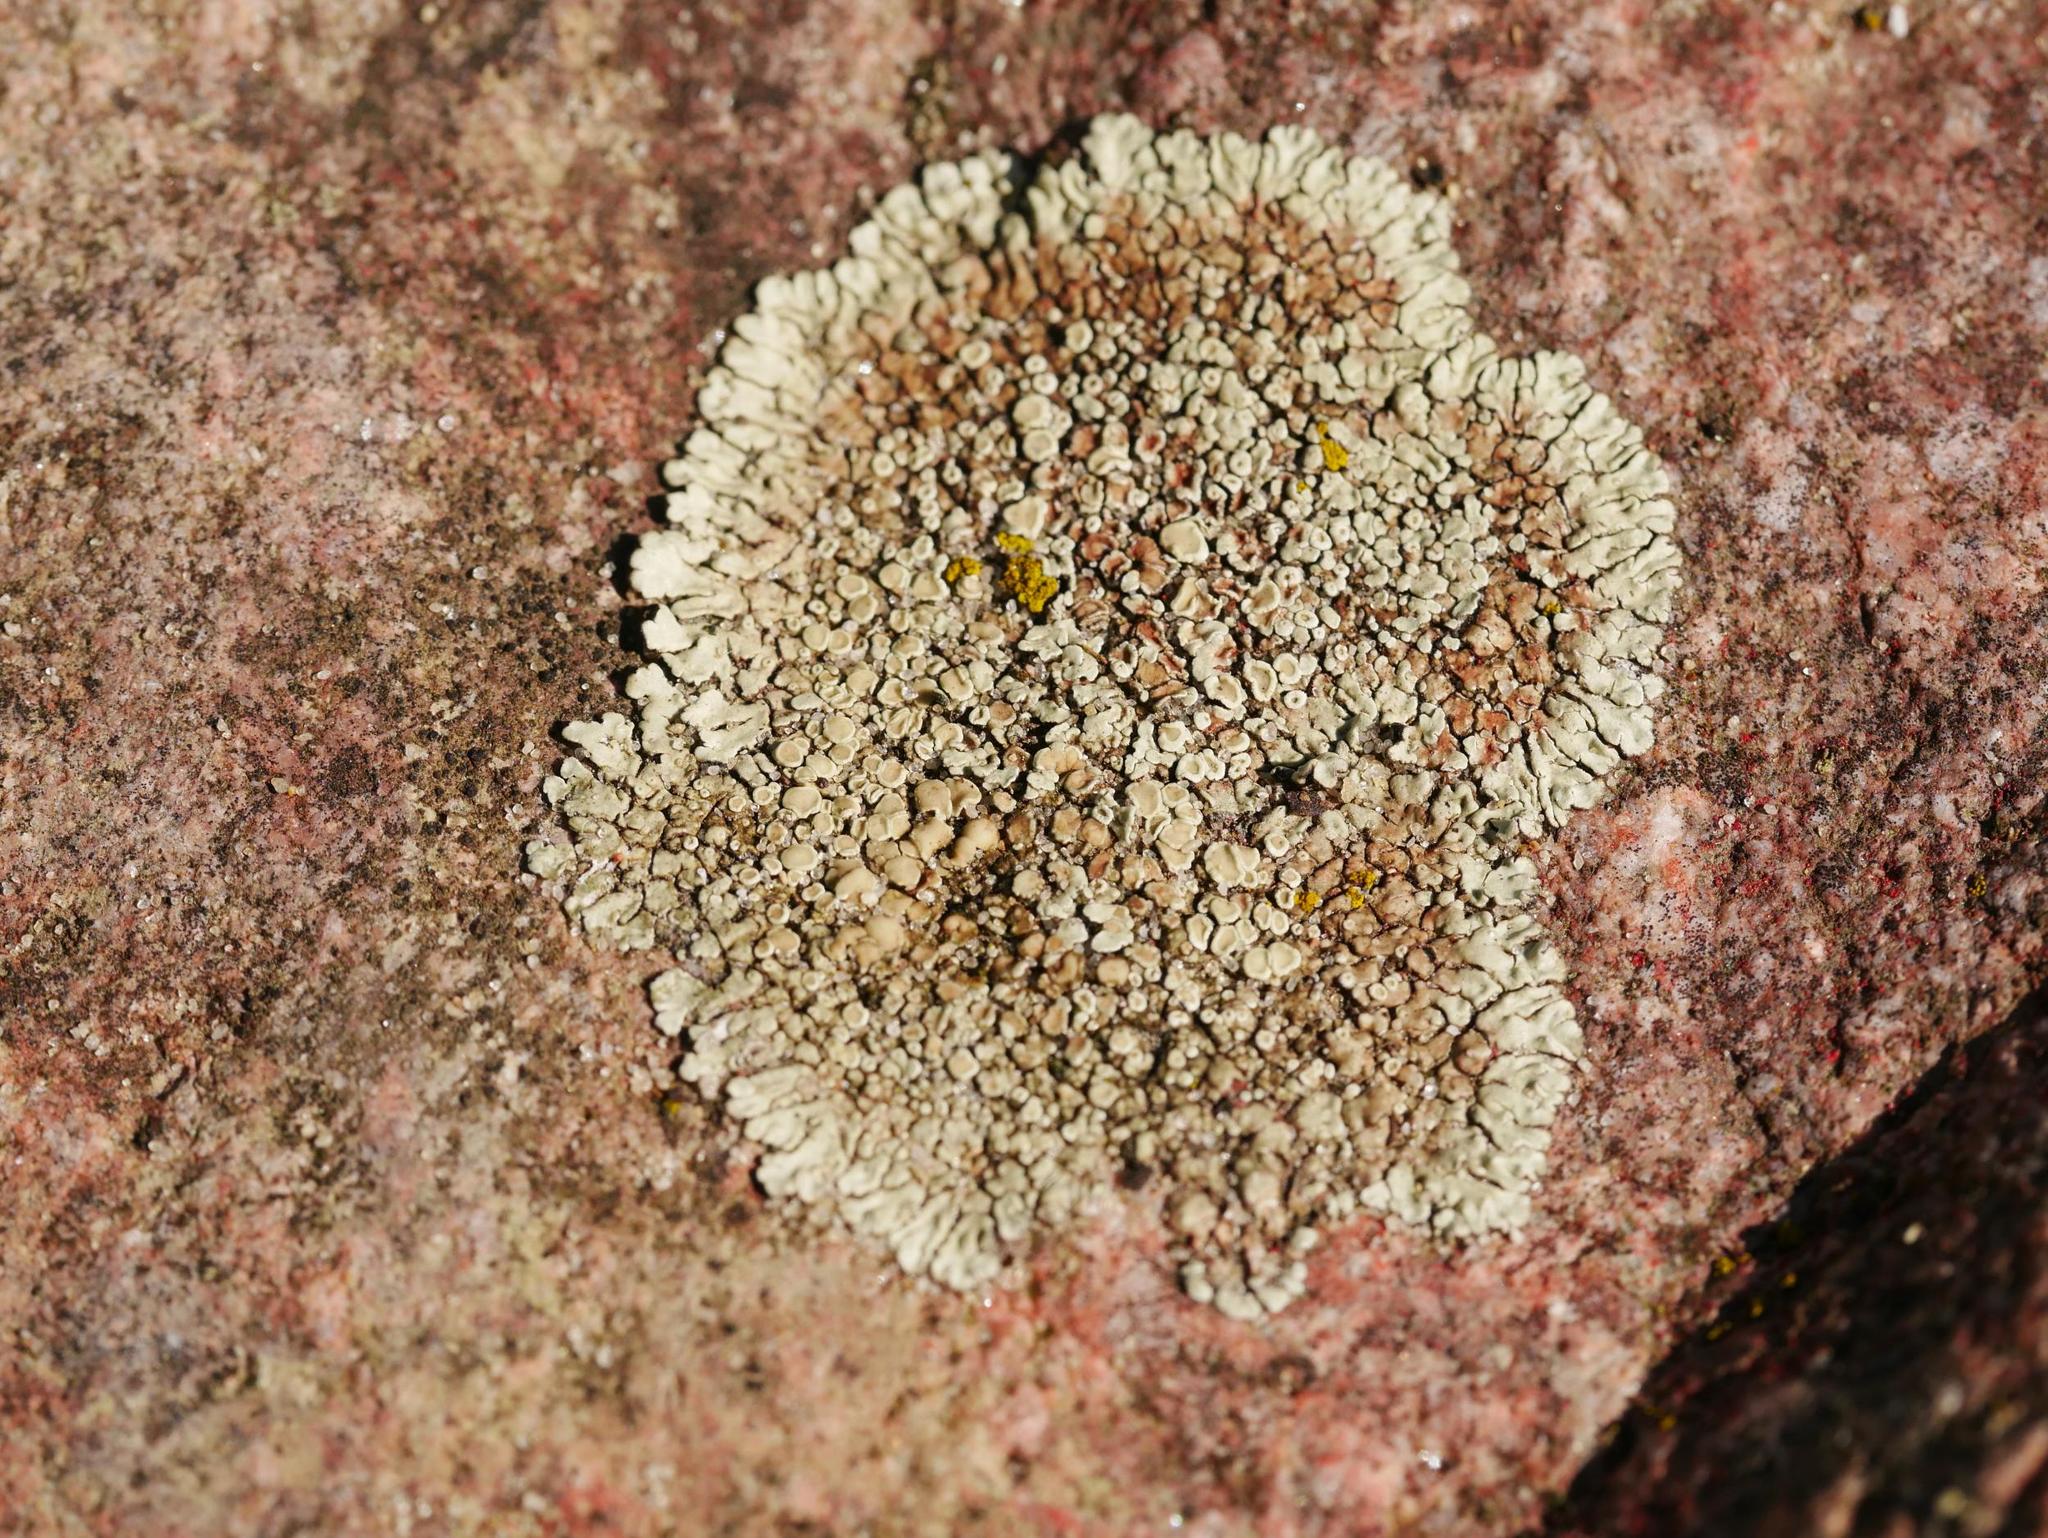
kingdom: Fungi
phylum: Ascomycota
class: Lecanoromycetes
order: Lecanorales
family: Lecanoraceae
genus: Protoparmeliopsis
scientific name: Protoparmeliopsis muralis
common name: Stonewall rim lichen
